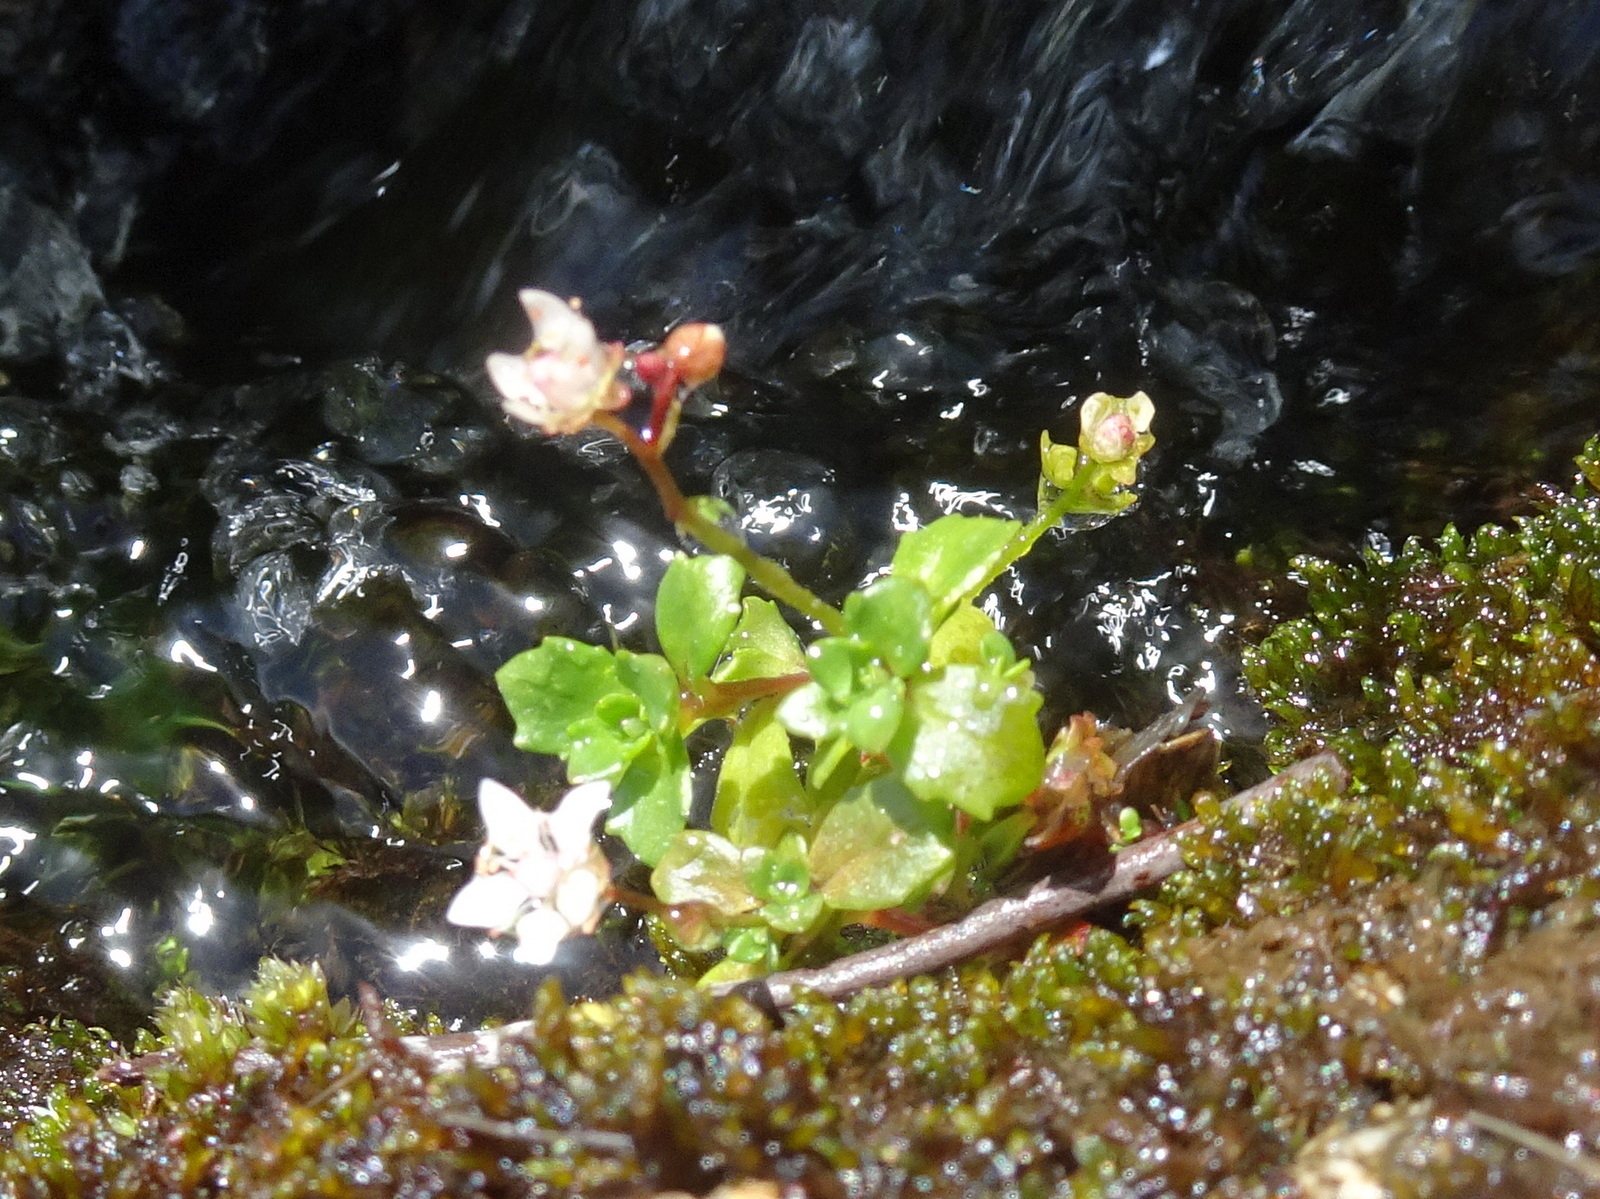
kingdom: Plantae
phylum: Tracheophyta
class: Magnoliopsida
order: Saxifragales
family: Saxifragaceae
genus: Micranthes
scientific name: Micranthes stellaris
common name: Starry saxifrage
